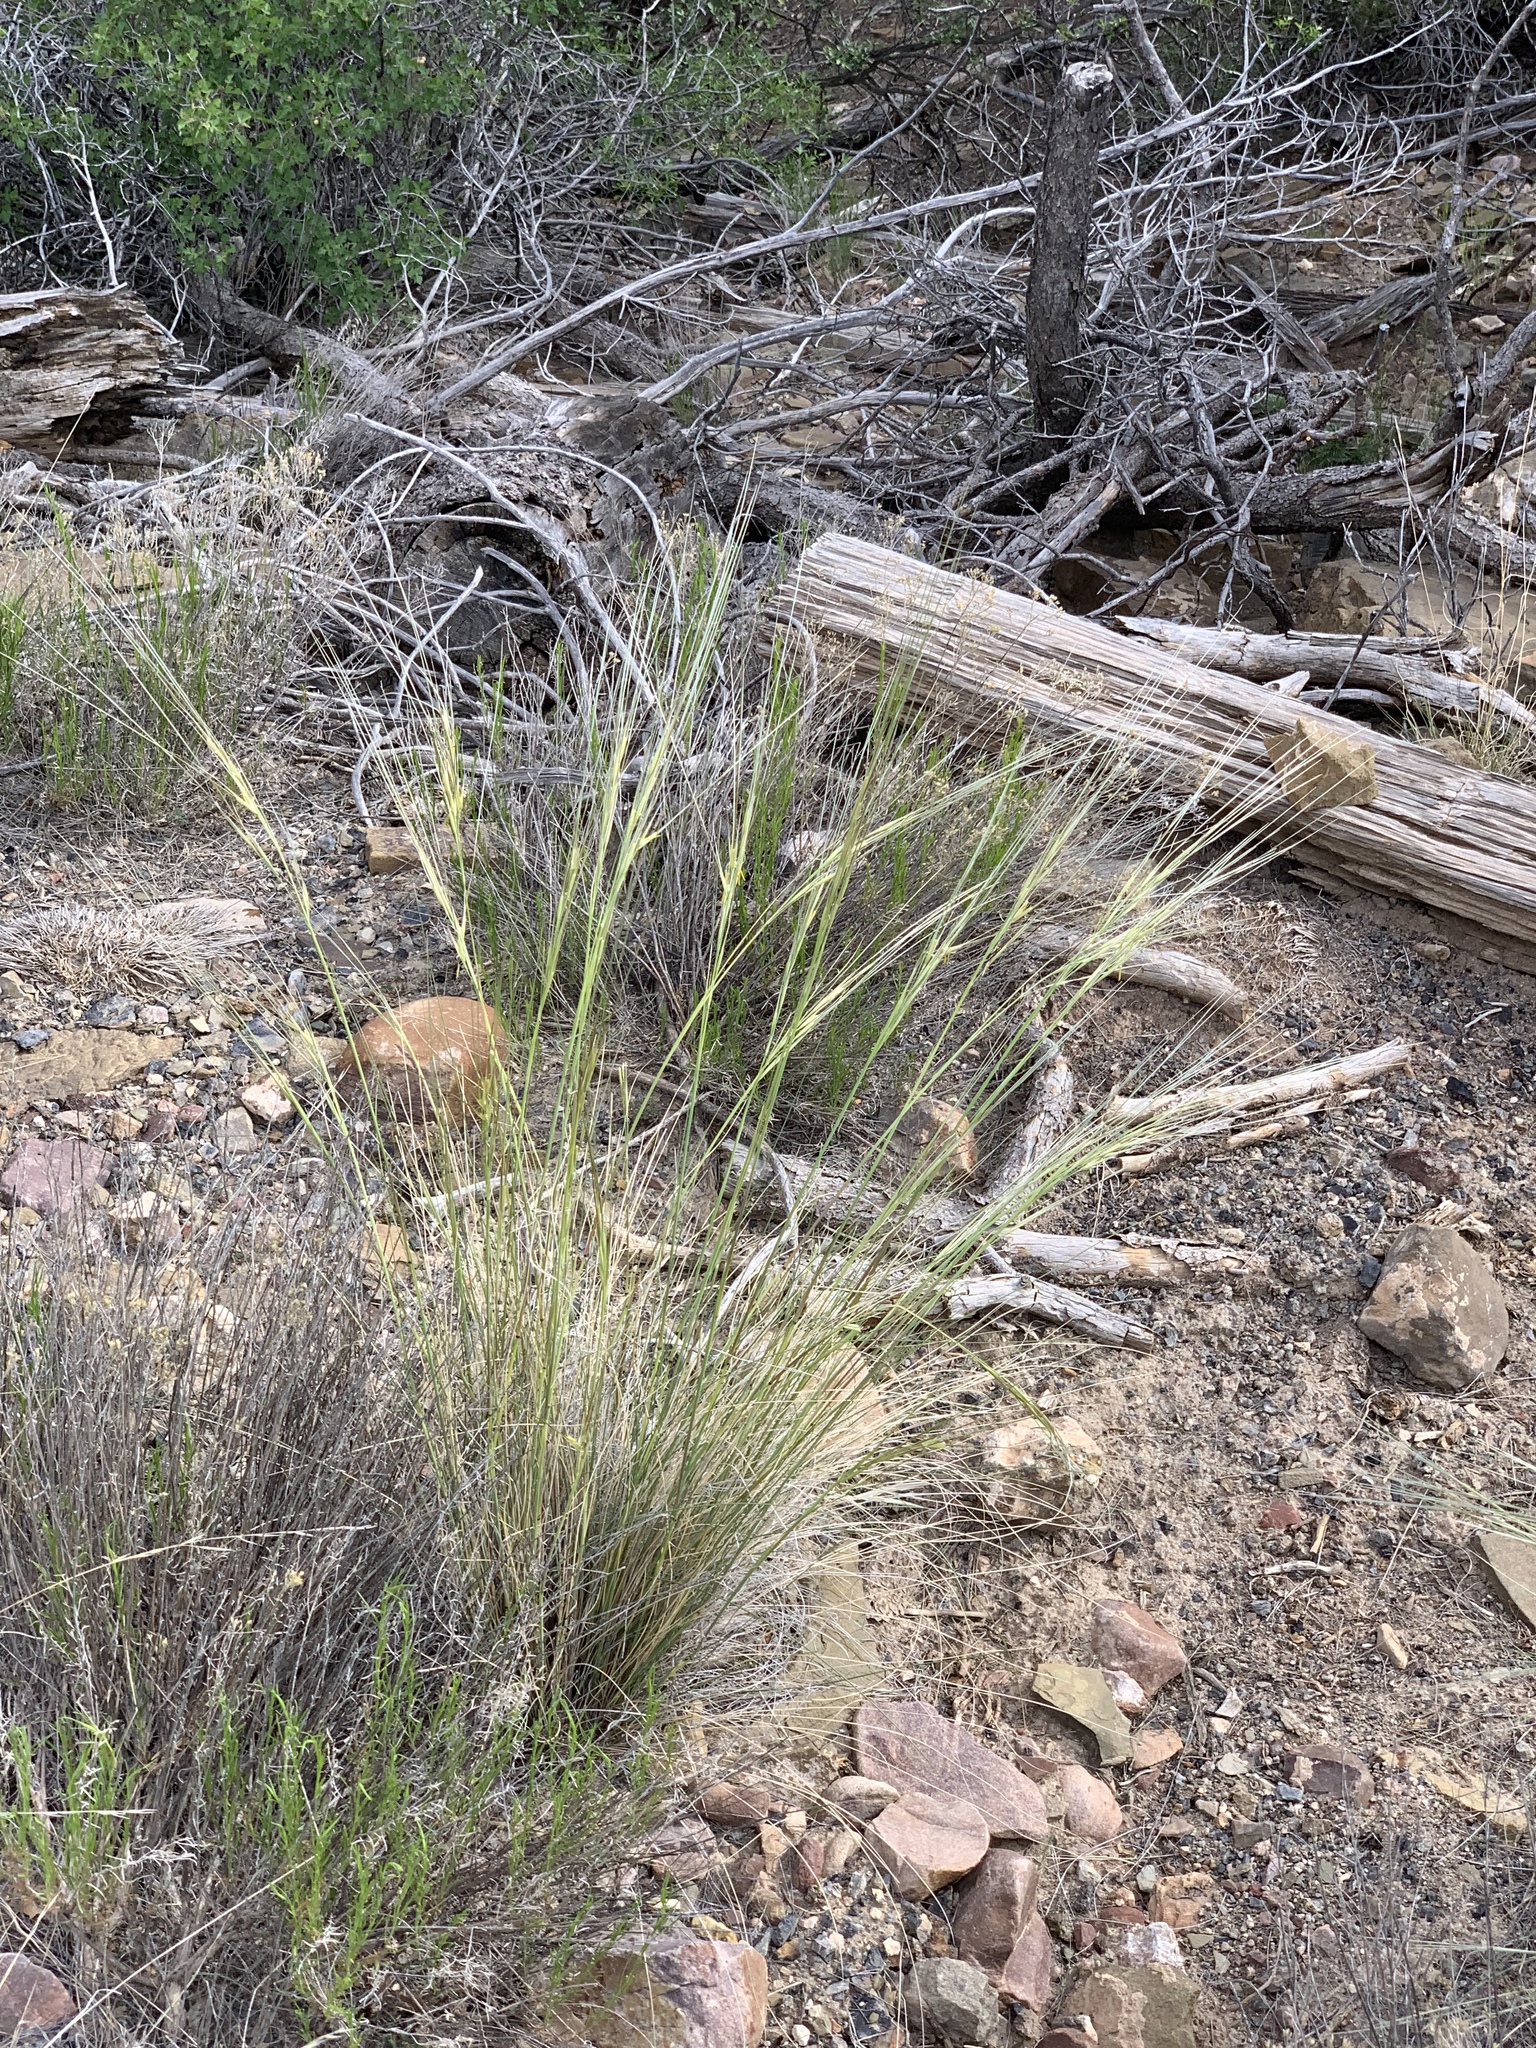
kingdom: Plantae
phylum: Tracheophyta
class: Liliopsida
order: Poales
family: Poaceae
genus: Hesperostipa
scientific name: Hesperostipa comata
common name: Needle-and-thread grass
